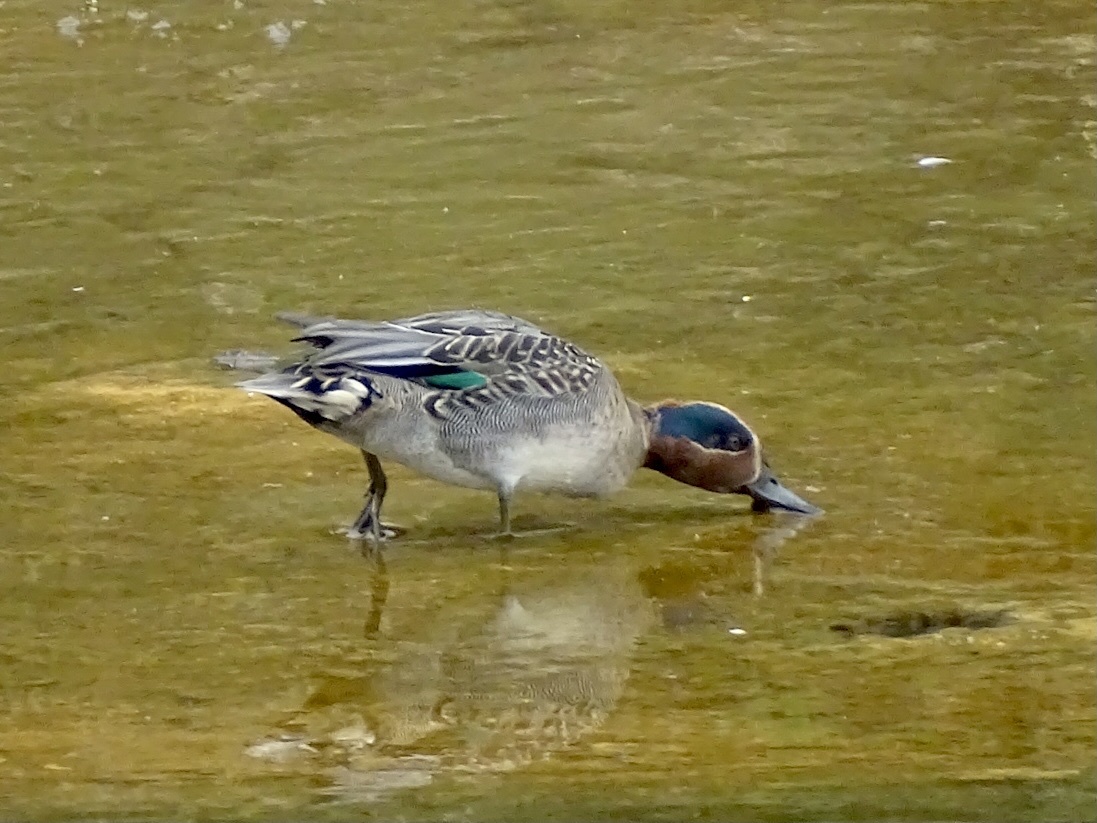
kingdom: Animalia
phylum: Chordata
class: Aves
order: Anseriformes
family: Anatidae
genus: Anas
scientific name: Anas crecca
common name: Eurasian teal
